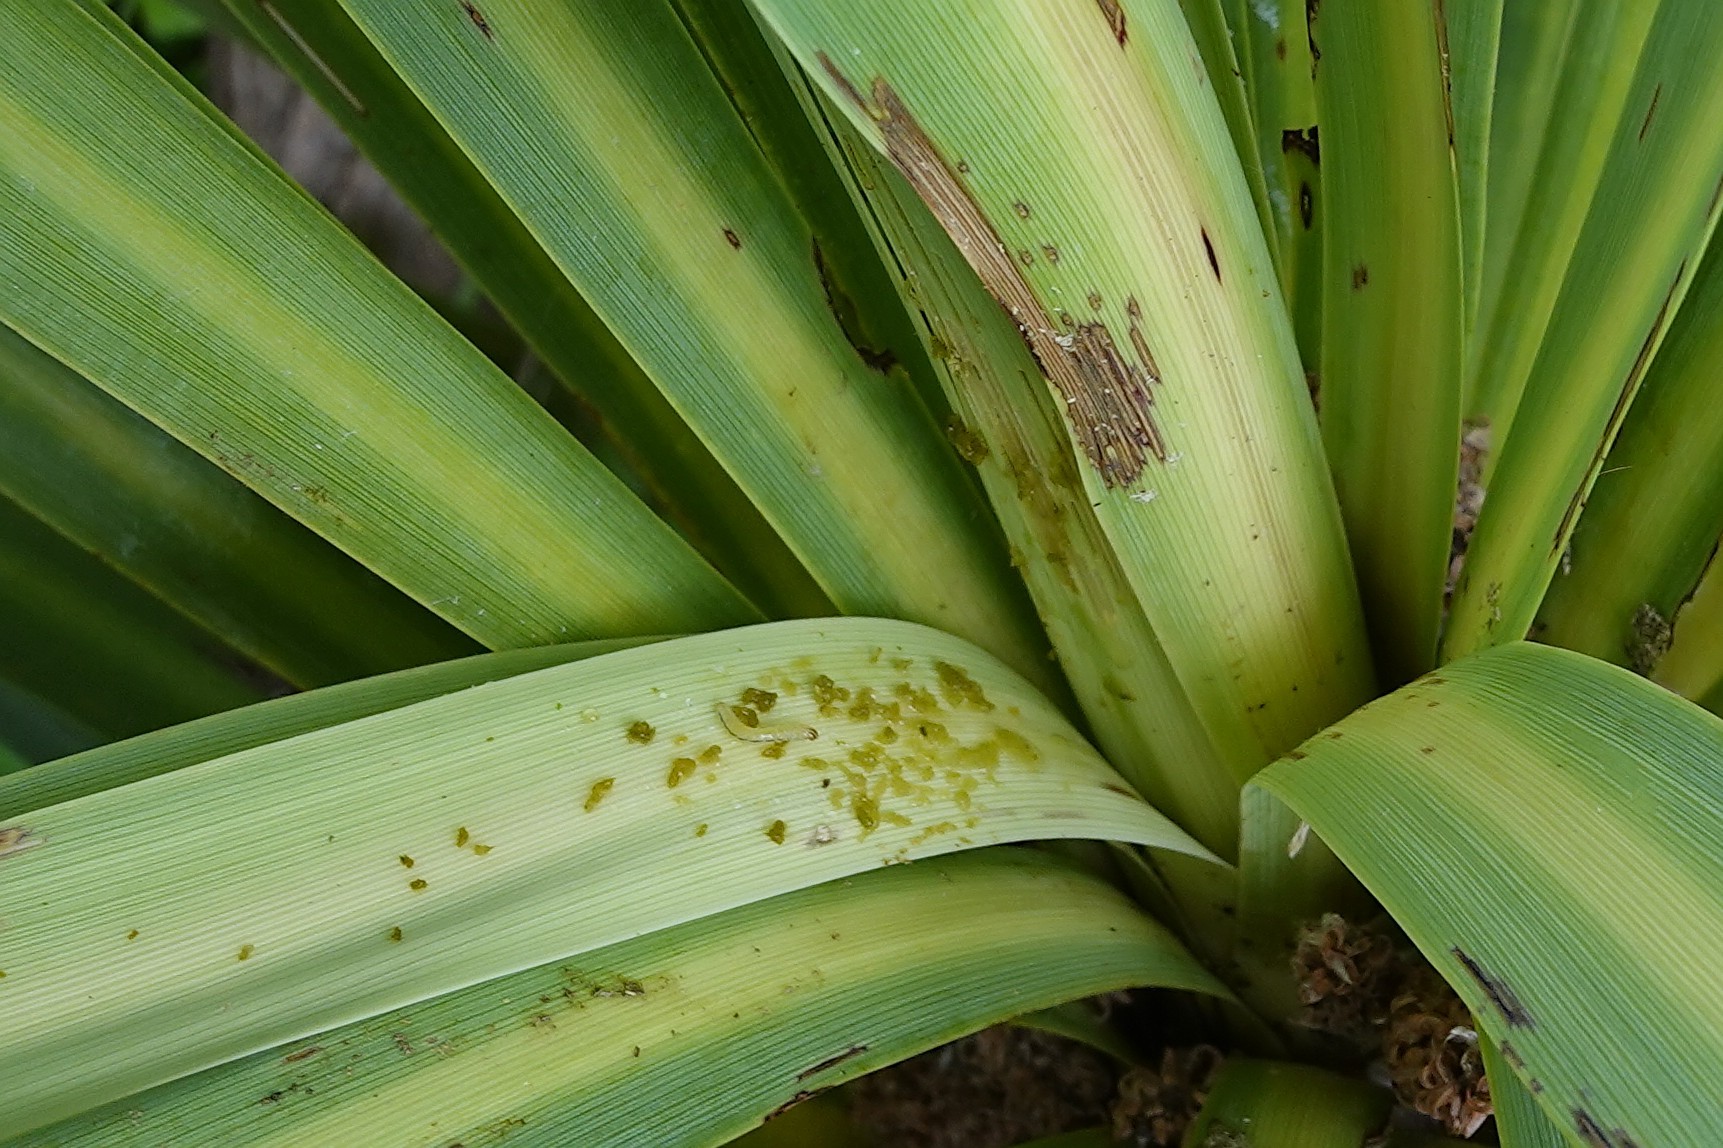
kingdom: Animalia
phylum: Arthropoda
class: Insecta
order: Lepidoptera
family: Geometridae
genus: Epiphryne
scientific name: Epiphryne verriculata
